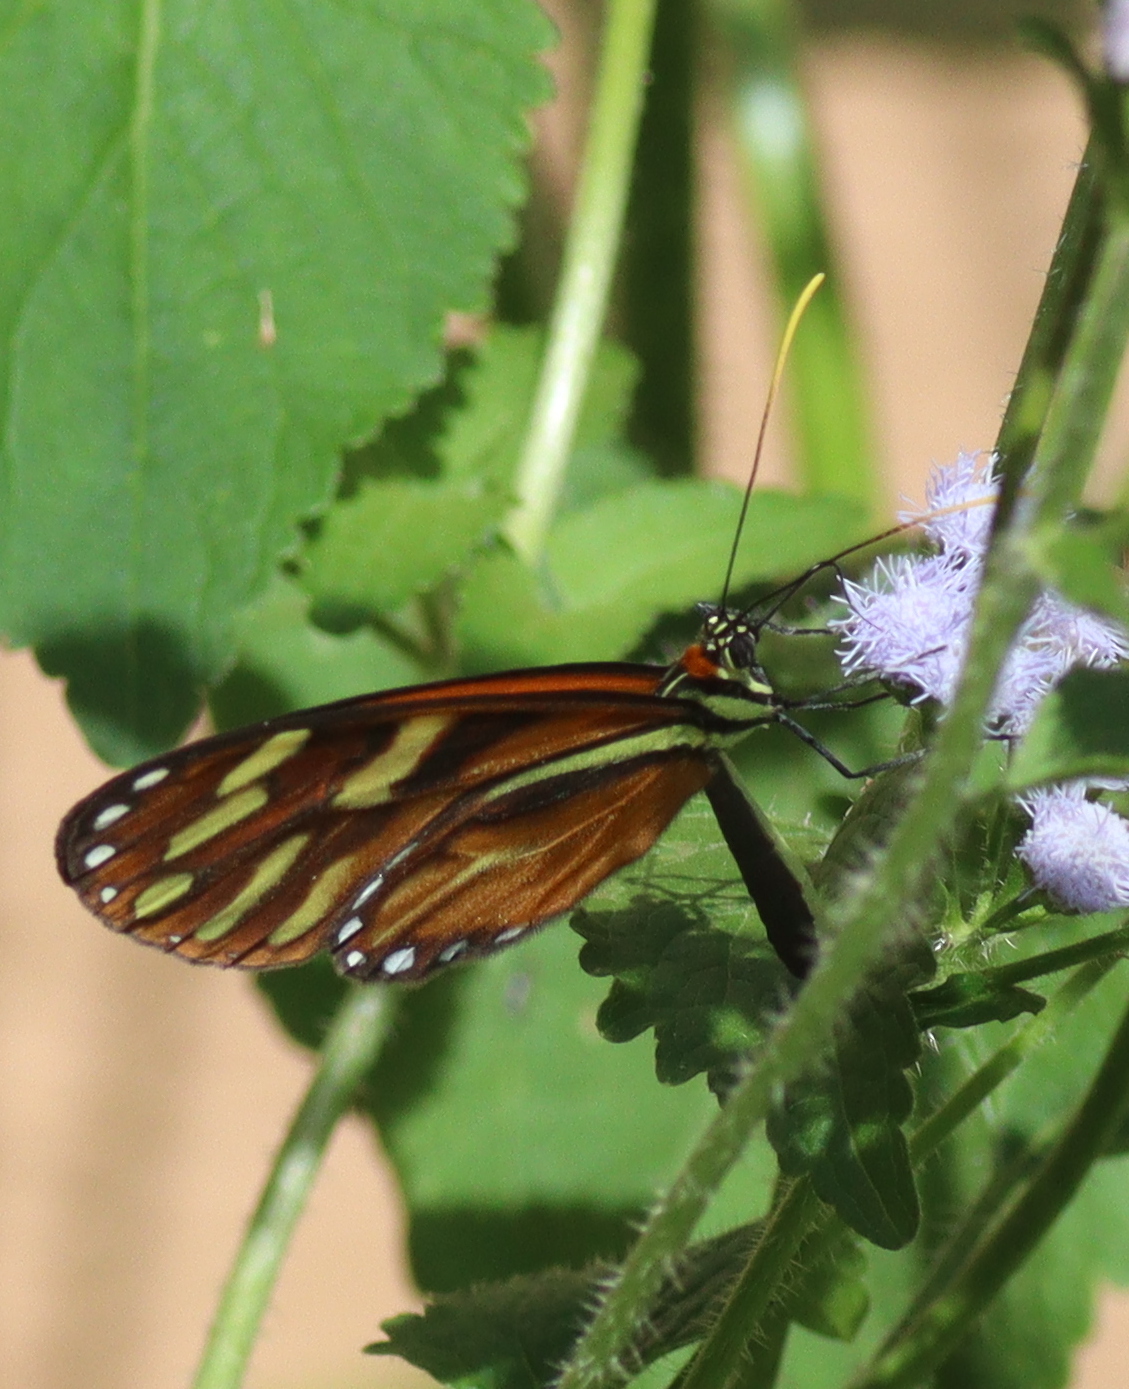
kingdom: Animalia
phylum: Arthropoda
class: Insecta
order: Lepidoptera
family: Nymphalidae
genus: Ithomia
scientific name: Ithomia heraldica
